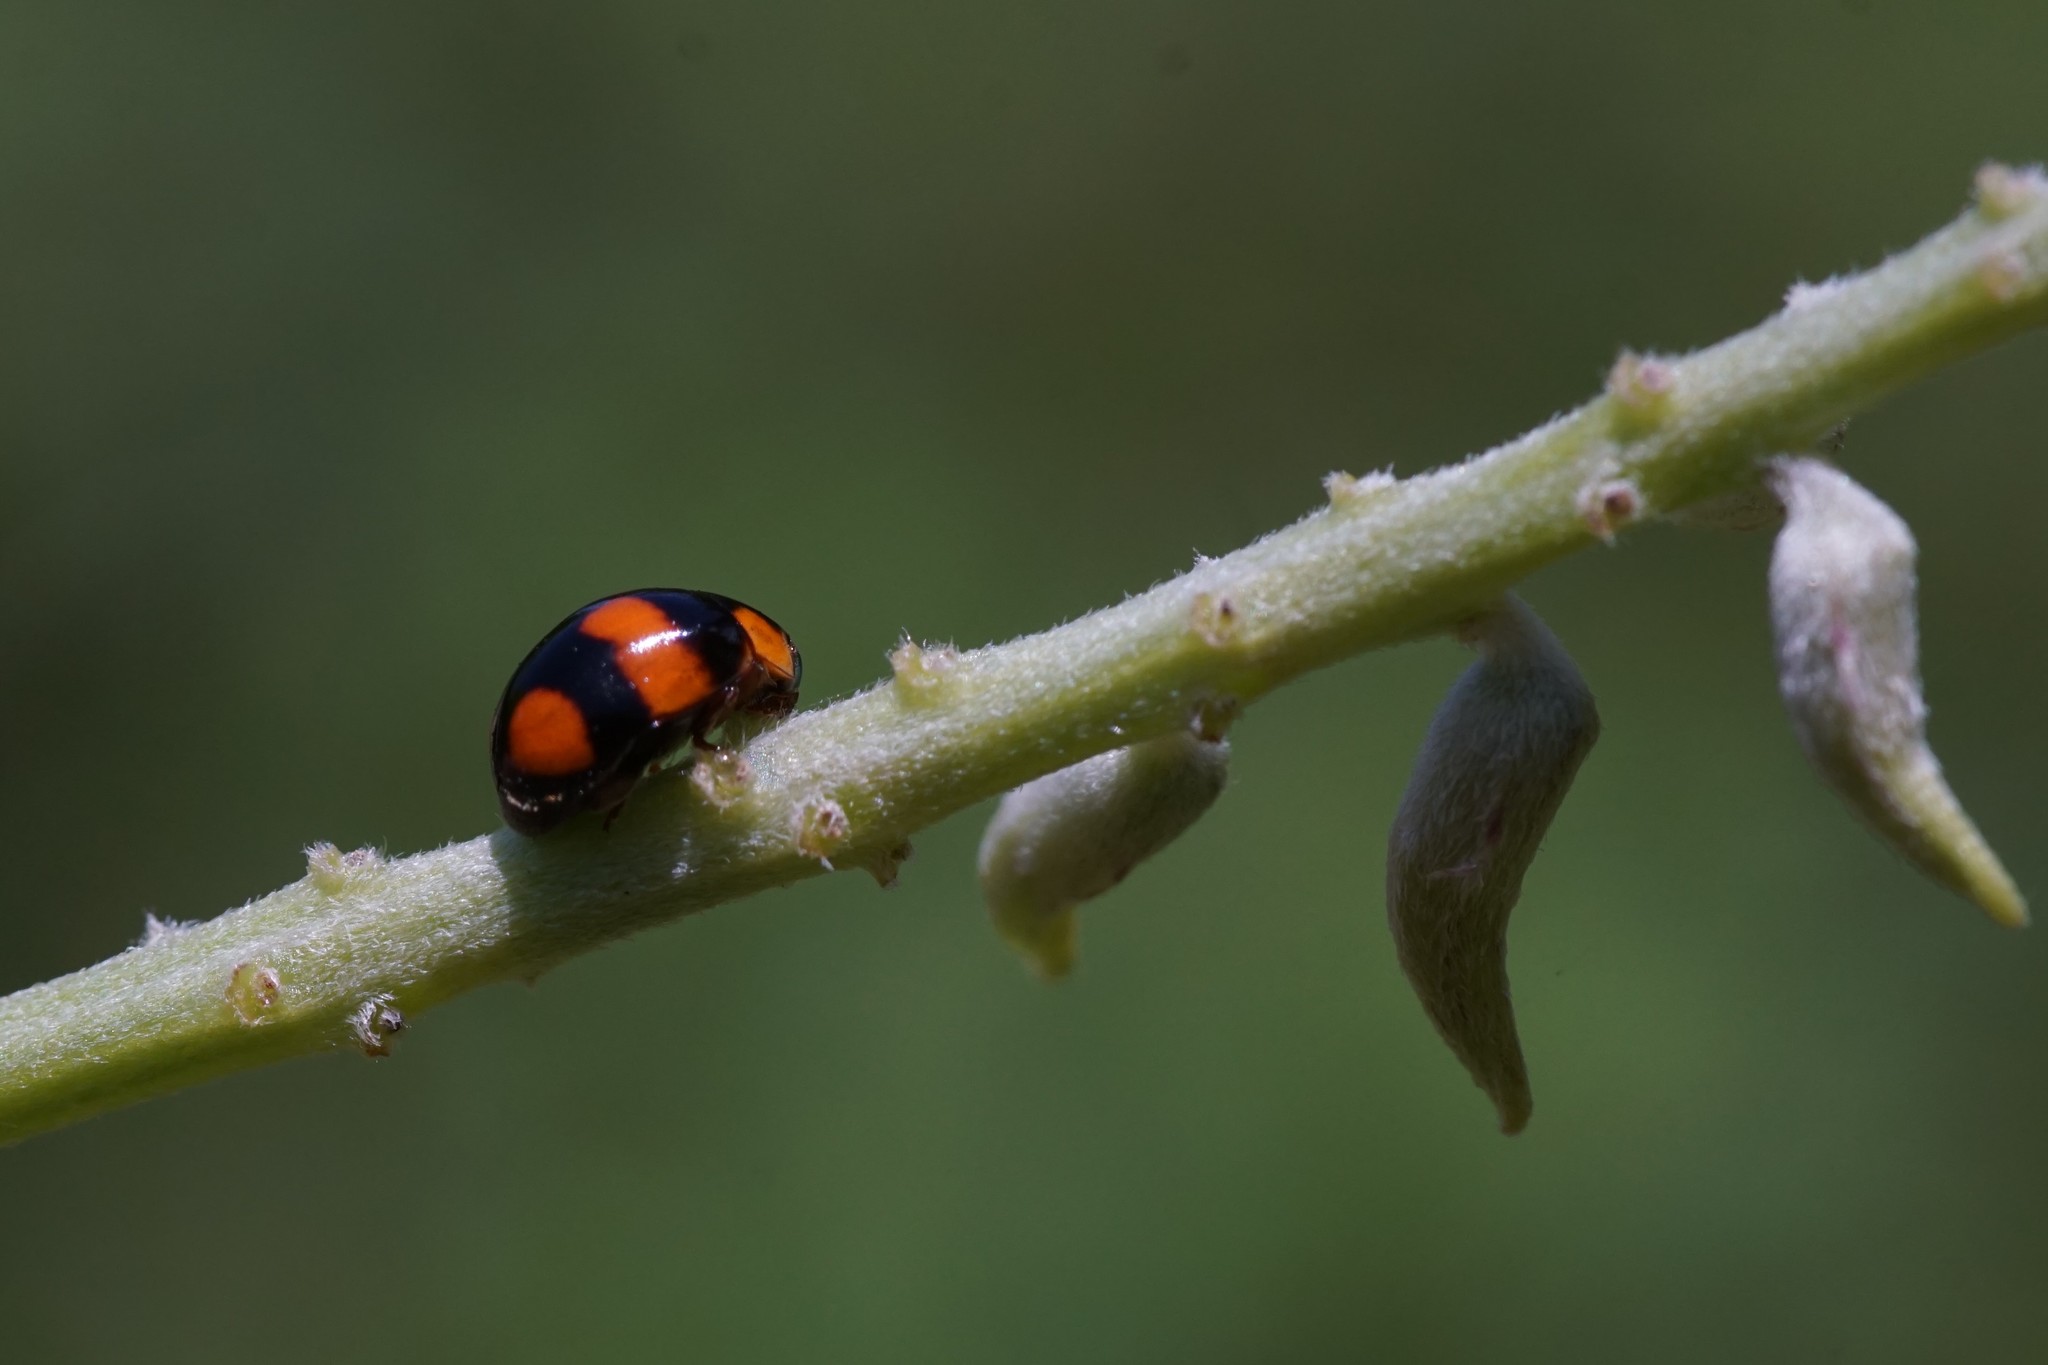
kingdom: Animalia
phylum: Arthropoda
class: Insecta
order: Coleoptera
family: Coccinellidae
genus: Coelophora
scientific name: Coelophora inaequalis
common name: Common australian lady beetle
